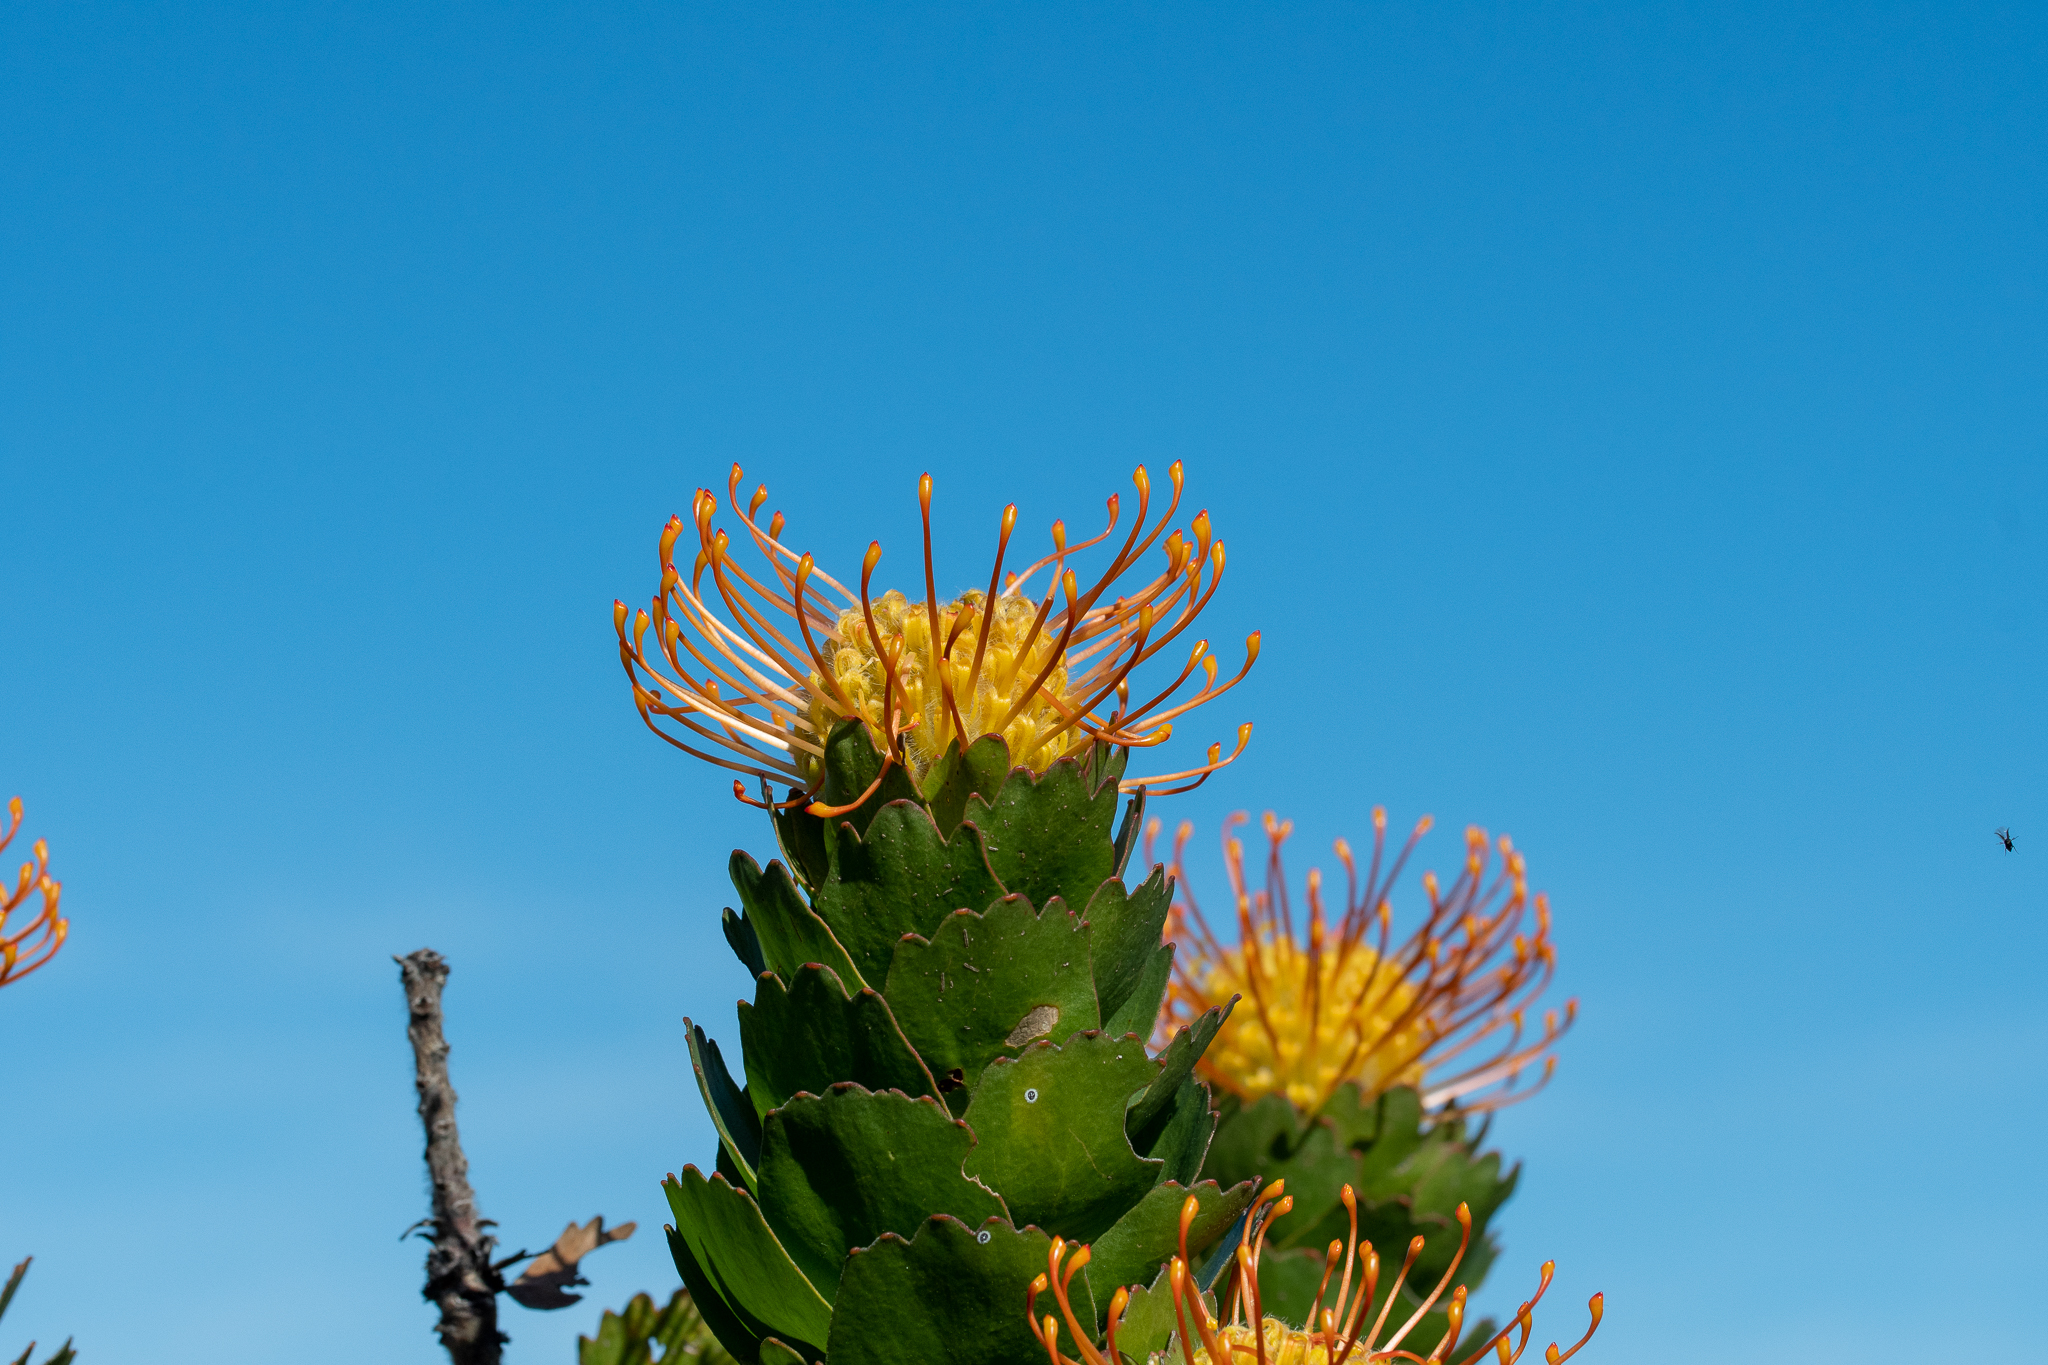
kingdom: Plantae
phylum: Tracheophyta
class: Magnoliopsida
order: Proteales
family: Proteaceae
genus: Leucospermum
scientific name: Leucospermum patersonii
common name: False tree pincushion
